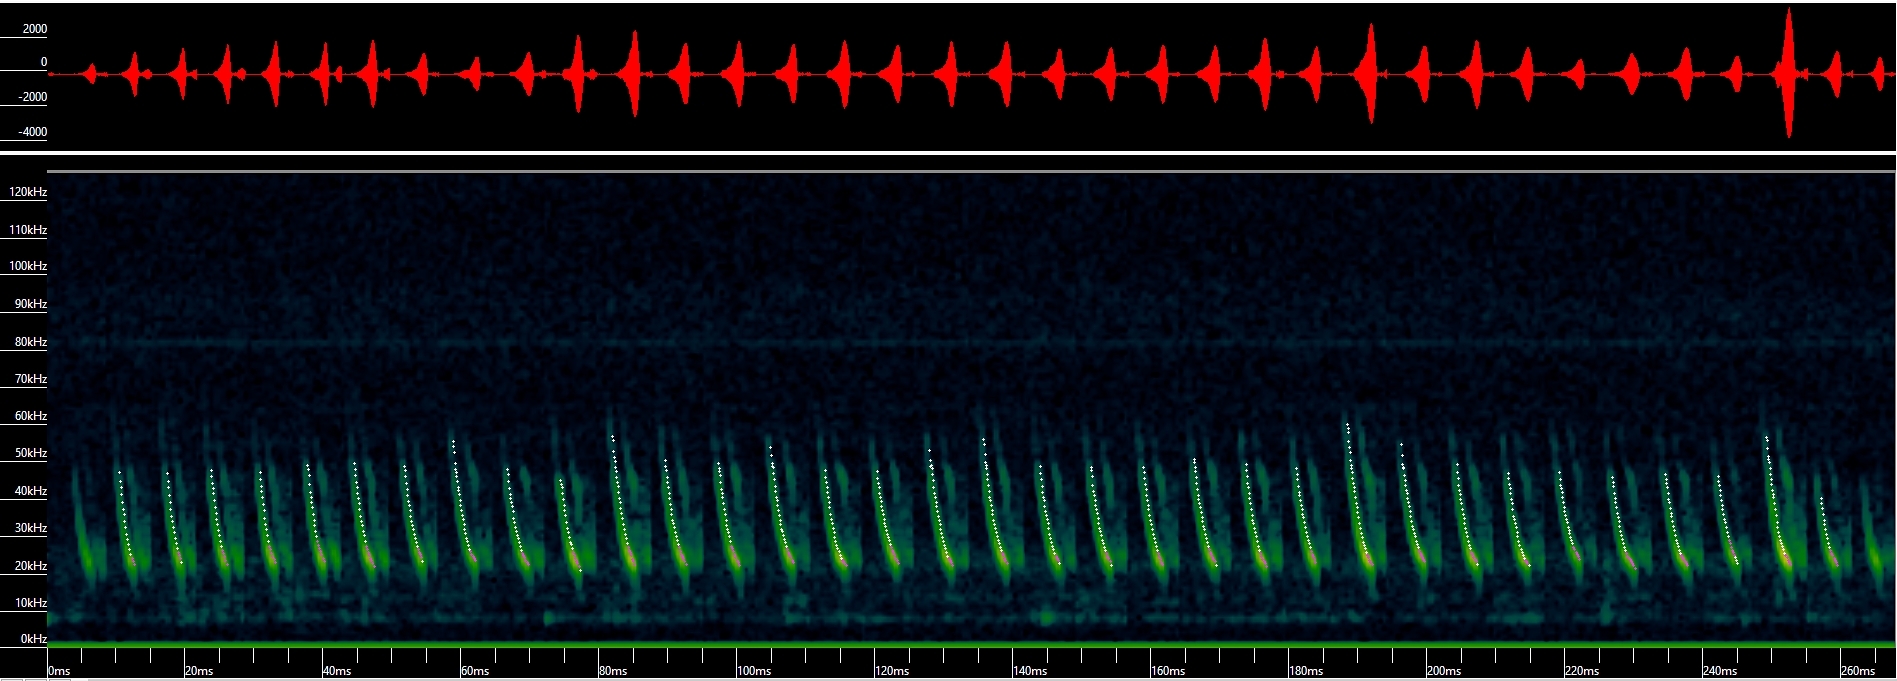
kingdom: Animalia
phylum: Chordata
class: Mammalia
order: Chiroptera
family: Vespertilionidae
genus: Myotis
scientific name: Myotis thysanodes
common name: Fringed myotis
